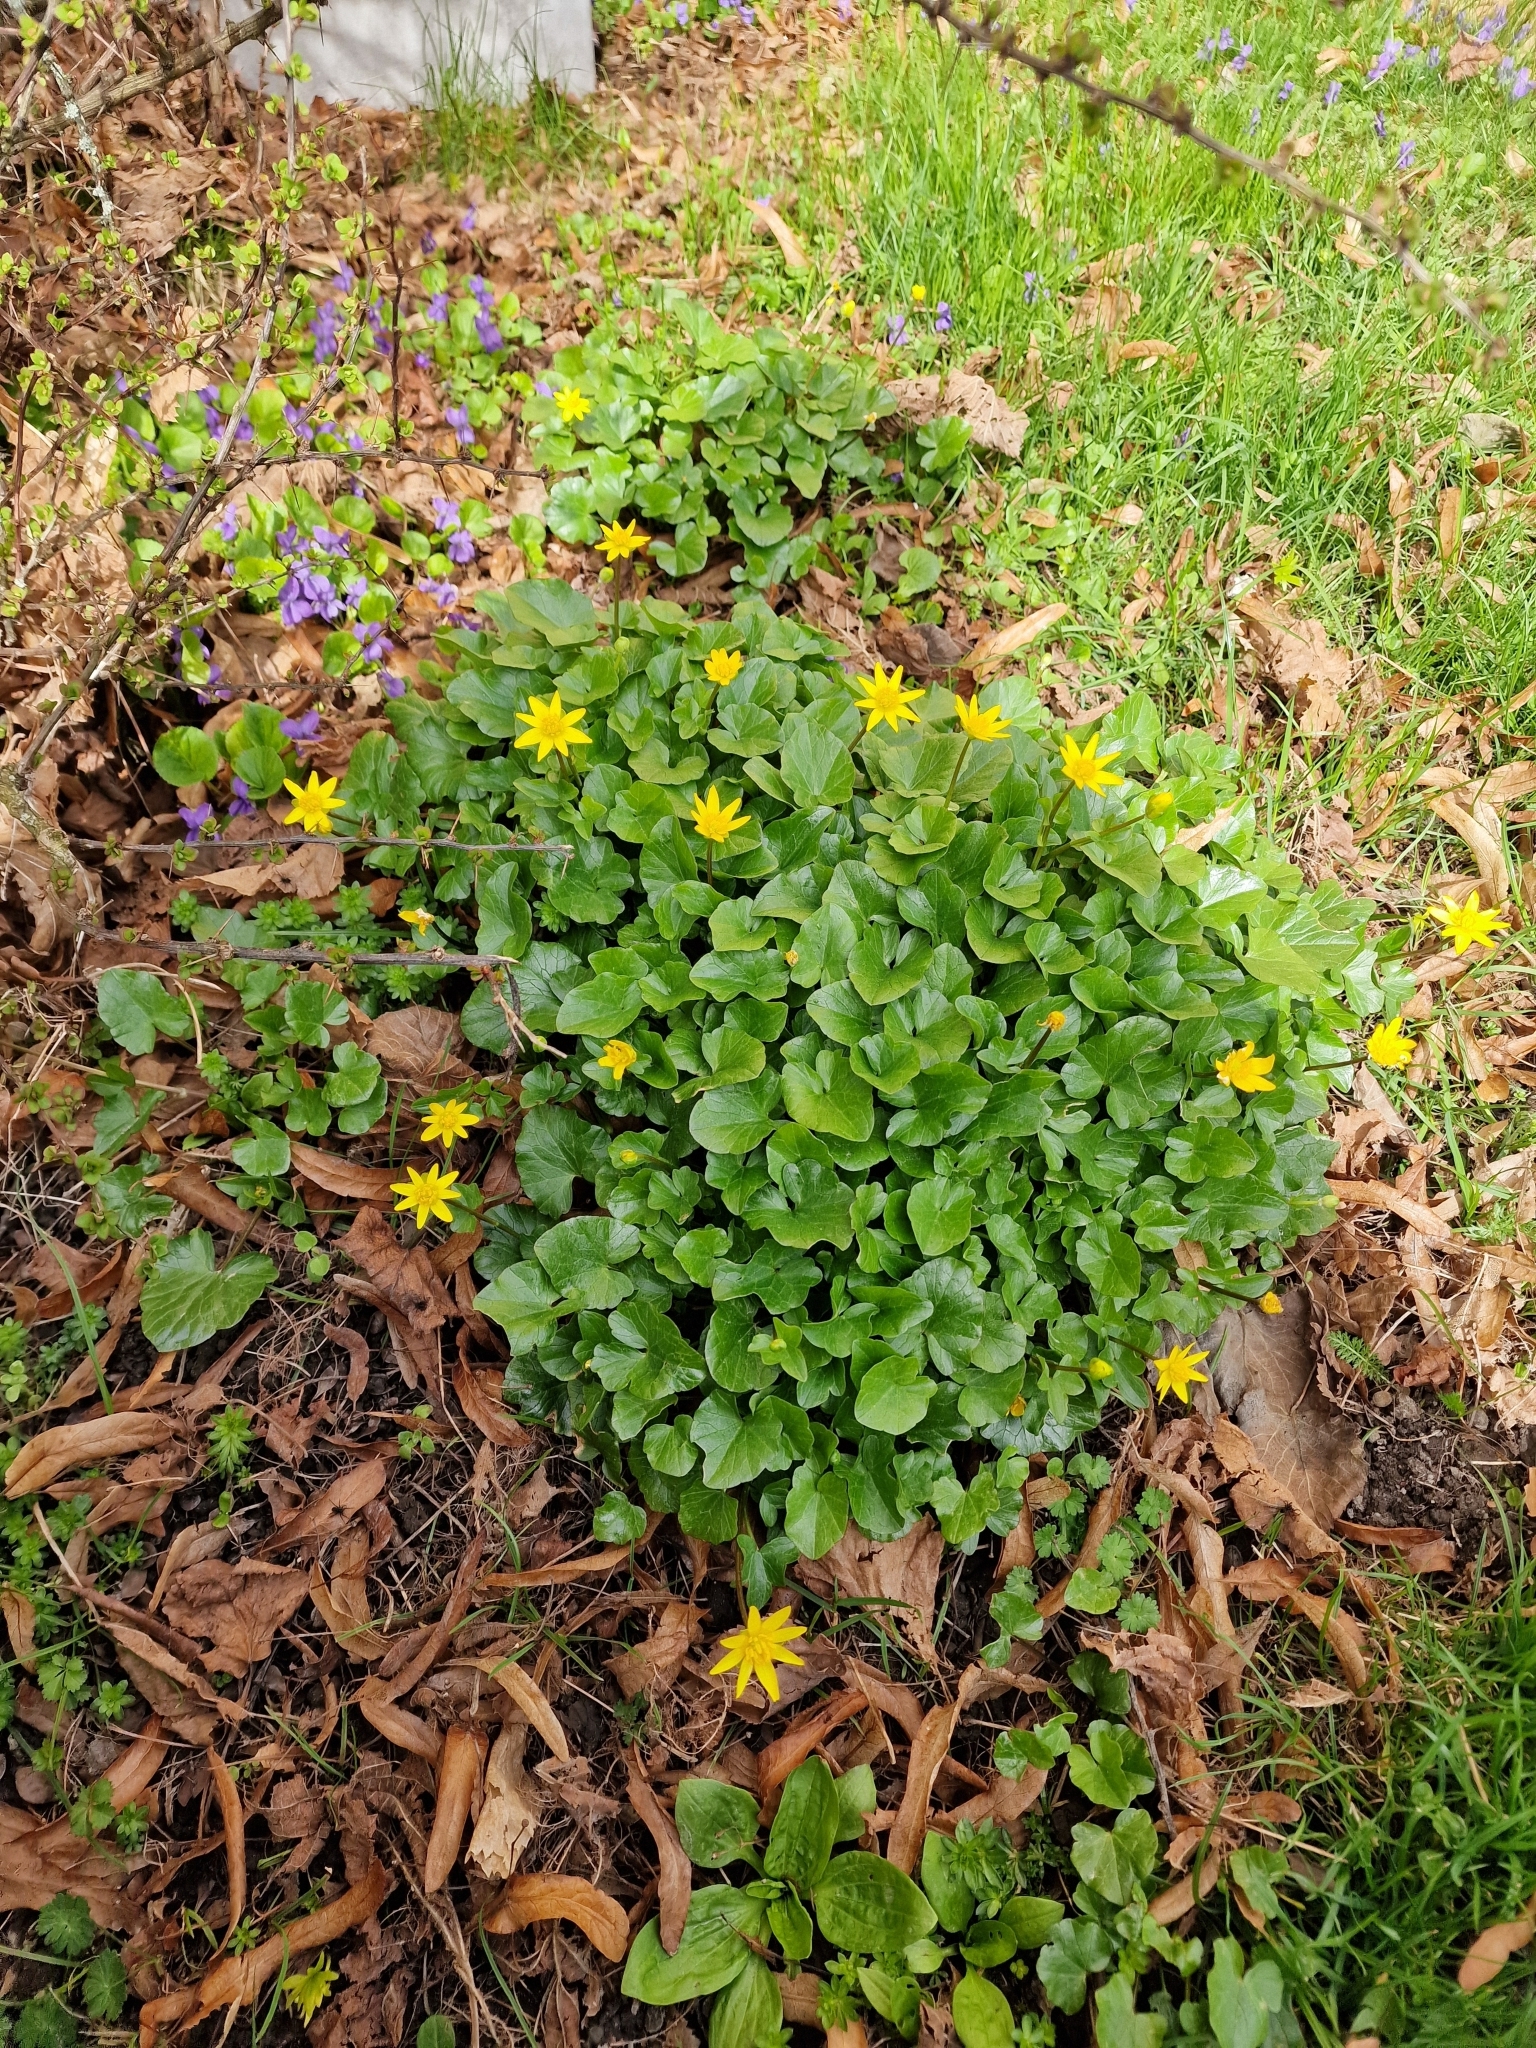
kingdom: Plantae
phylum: Tracheophyta
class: Magnoliopsida
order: Ranunculales
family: Ranunculaceae
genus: Ficaria
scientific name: Ficaria verna
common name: Lesser celandine
